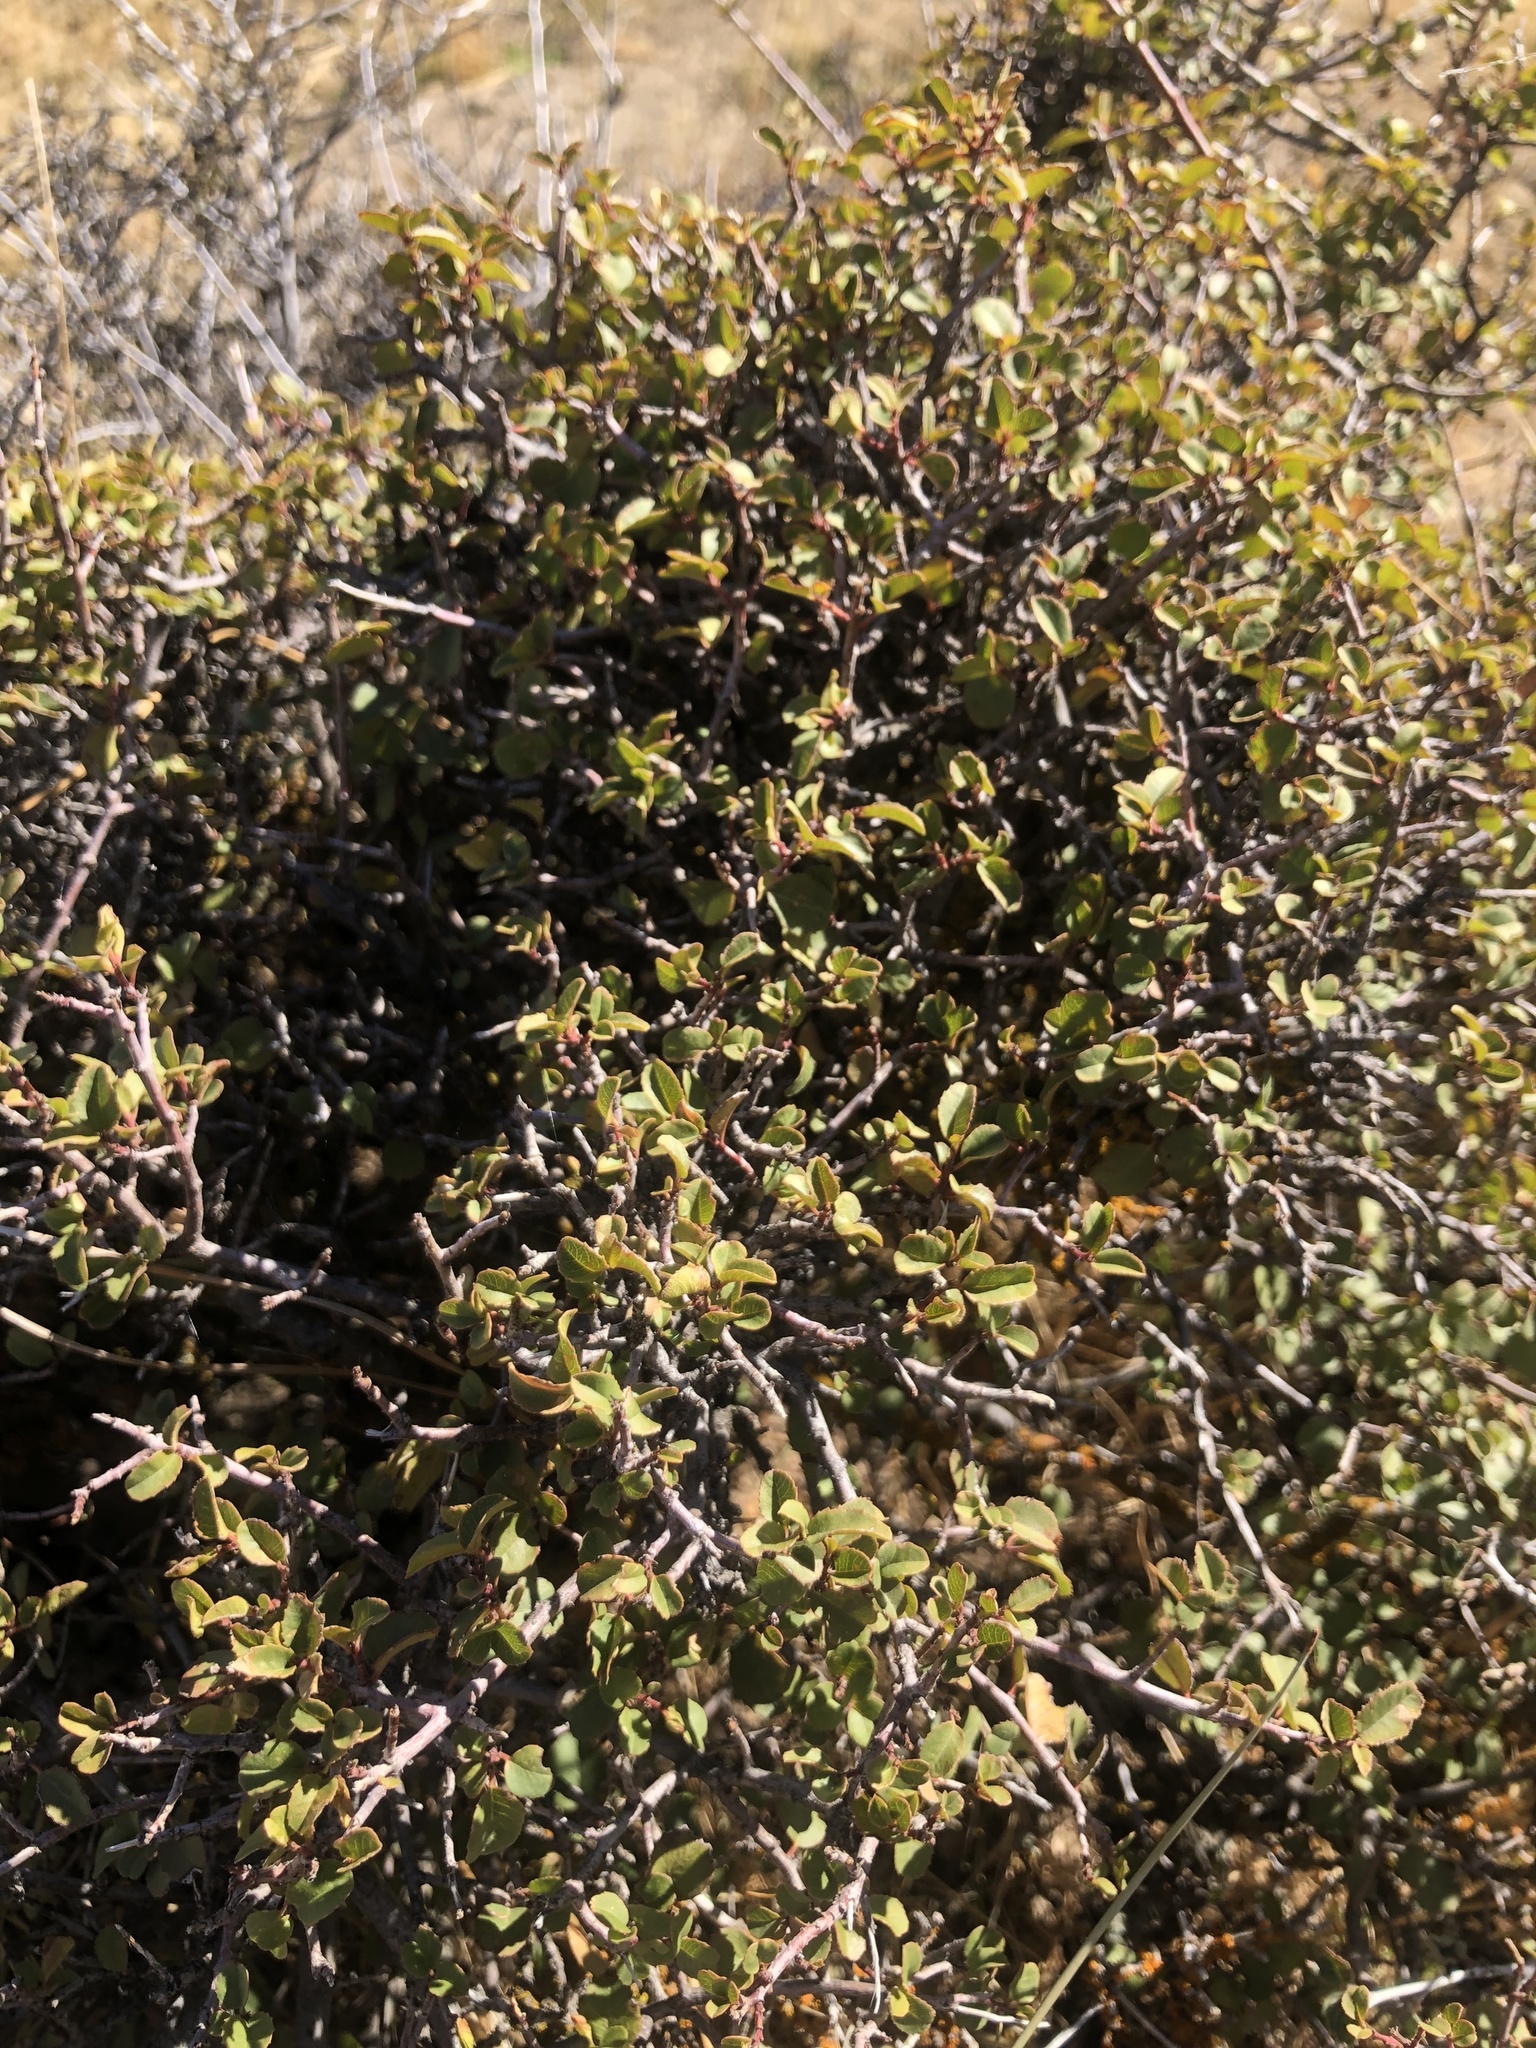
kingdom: Plantae
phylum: Tracheophyta
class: Magnoliopsida
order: Rosales
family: Rhamnaceae
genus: Endotropis
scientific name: Endotropis crocea
